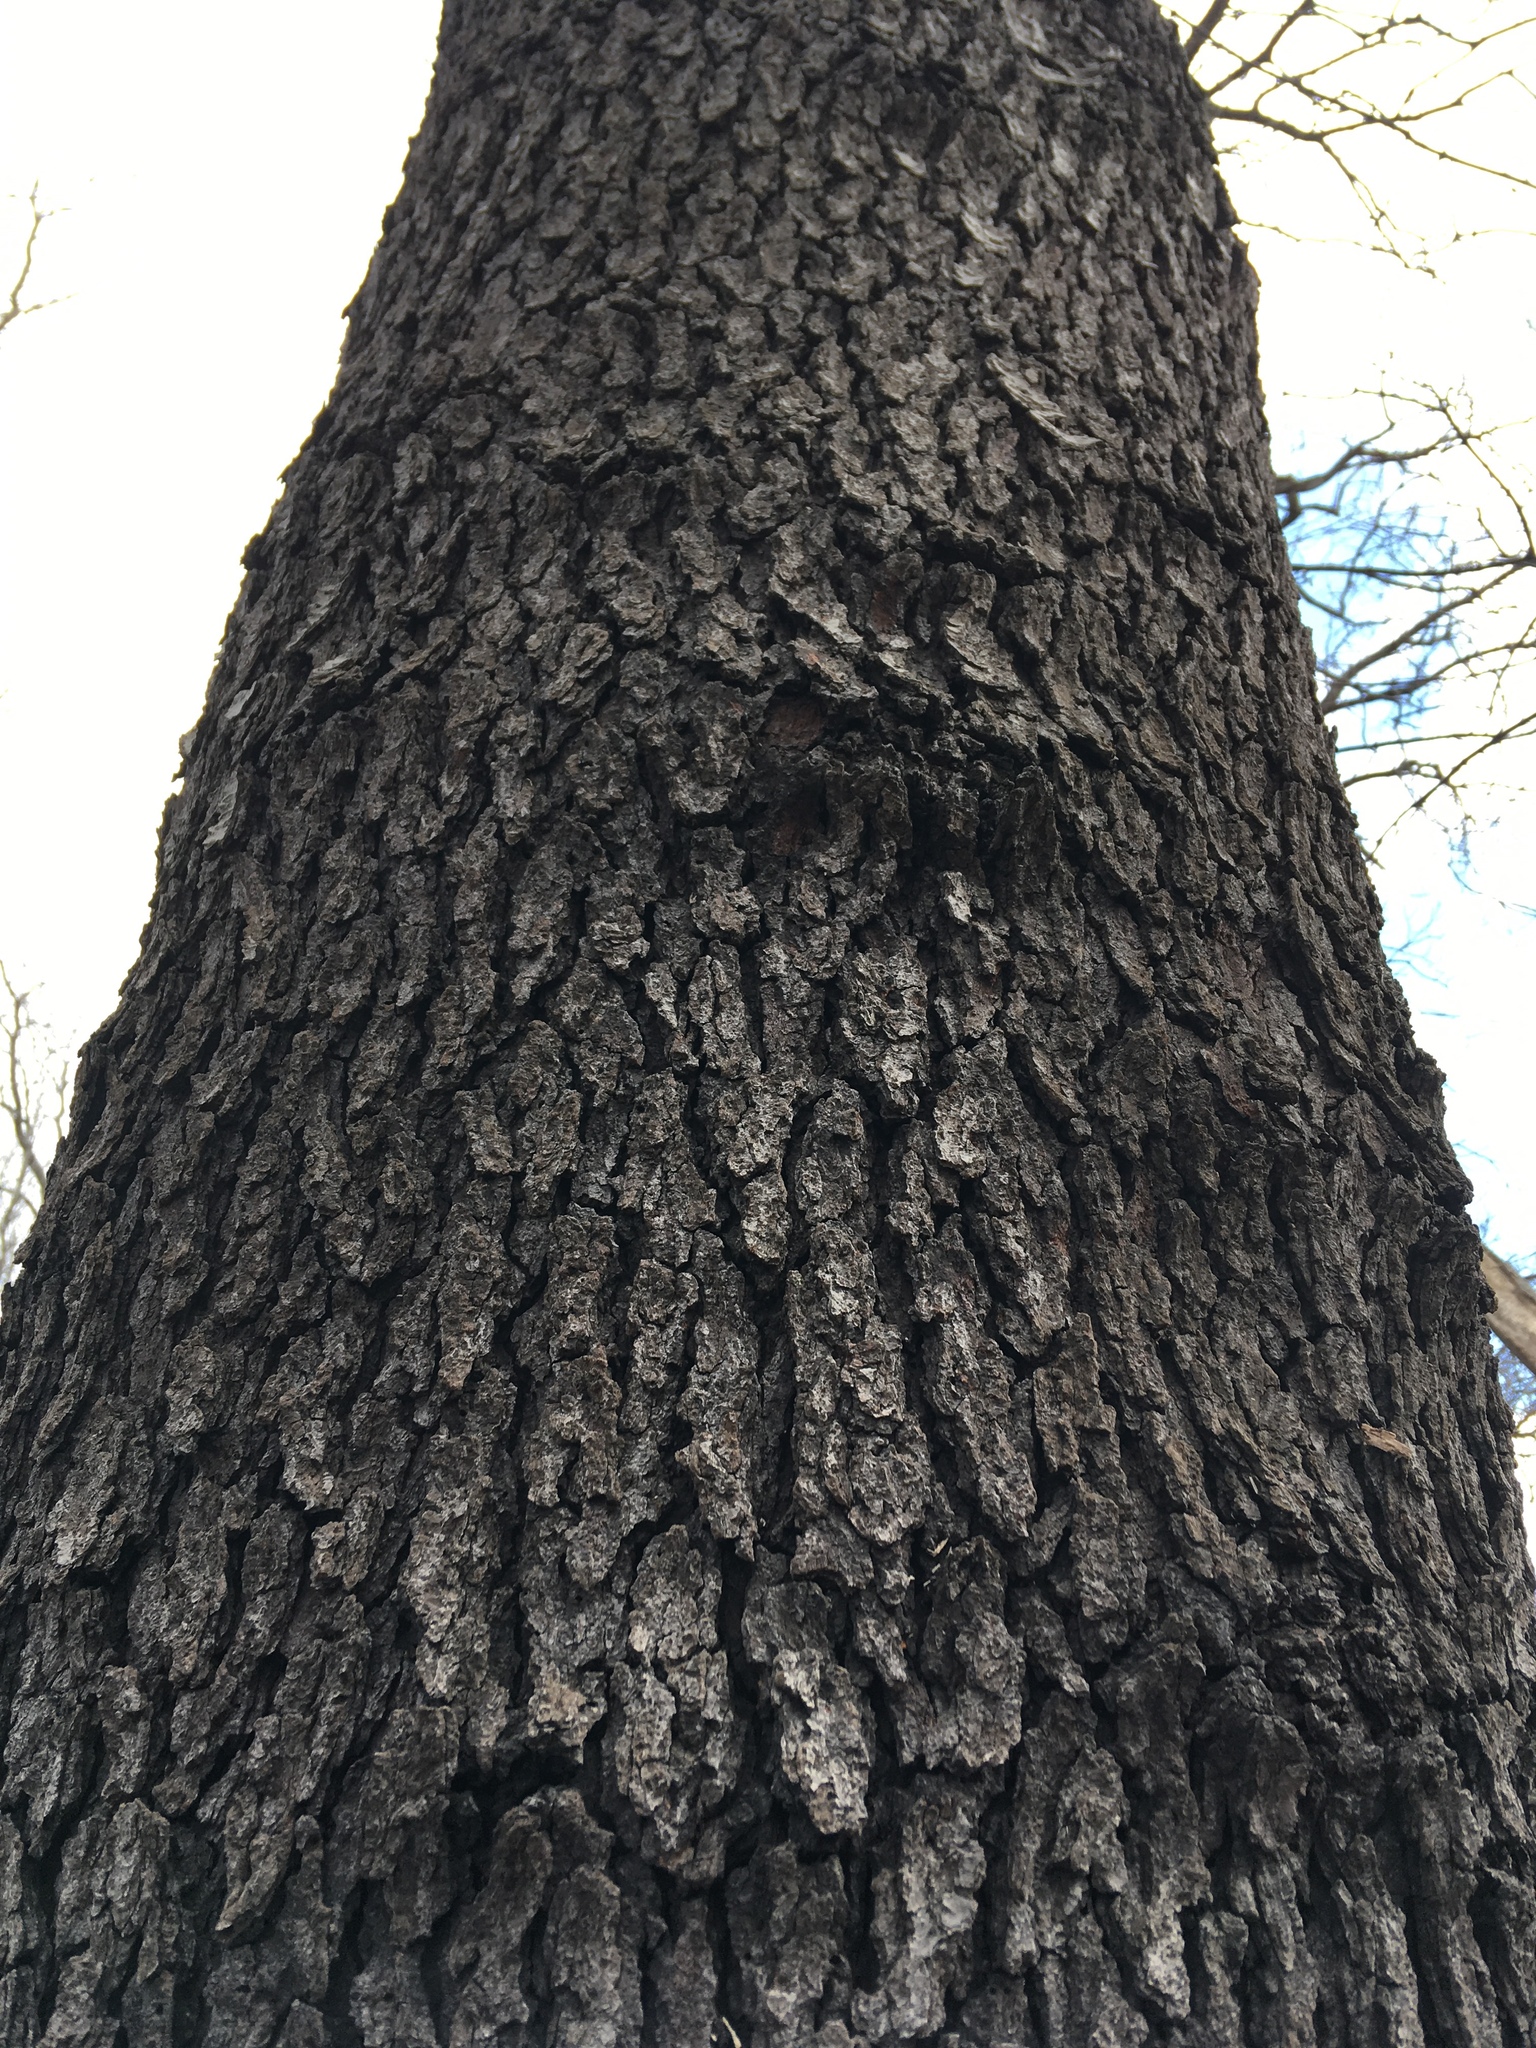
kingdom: Plantae
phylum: Tracheophyta
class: Magnoliopsida
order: Rosales
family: Rosaceae
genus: Prunus
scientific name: Prunus serotina
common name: Black cherry
